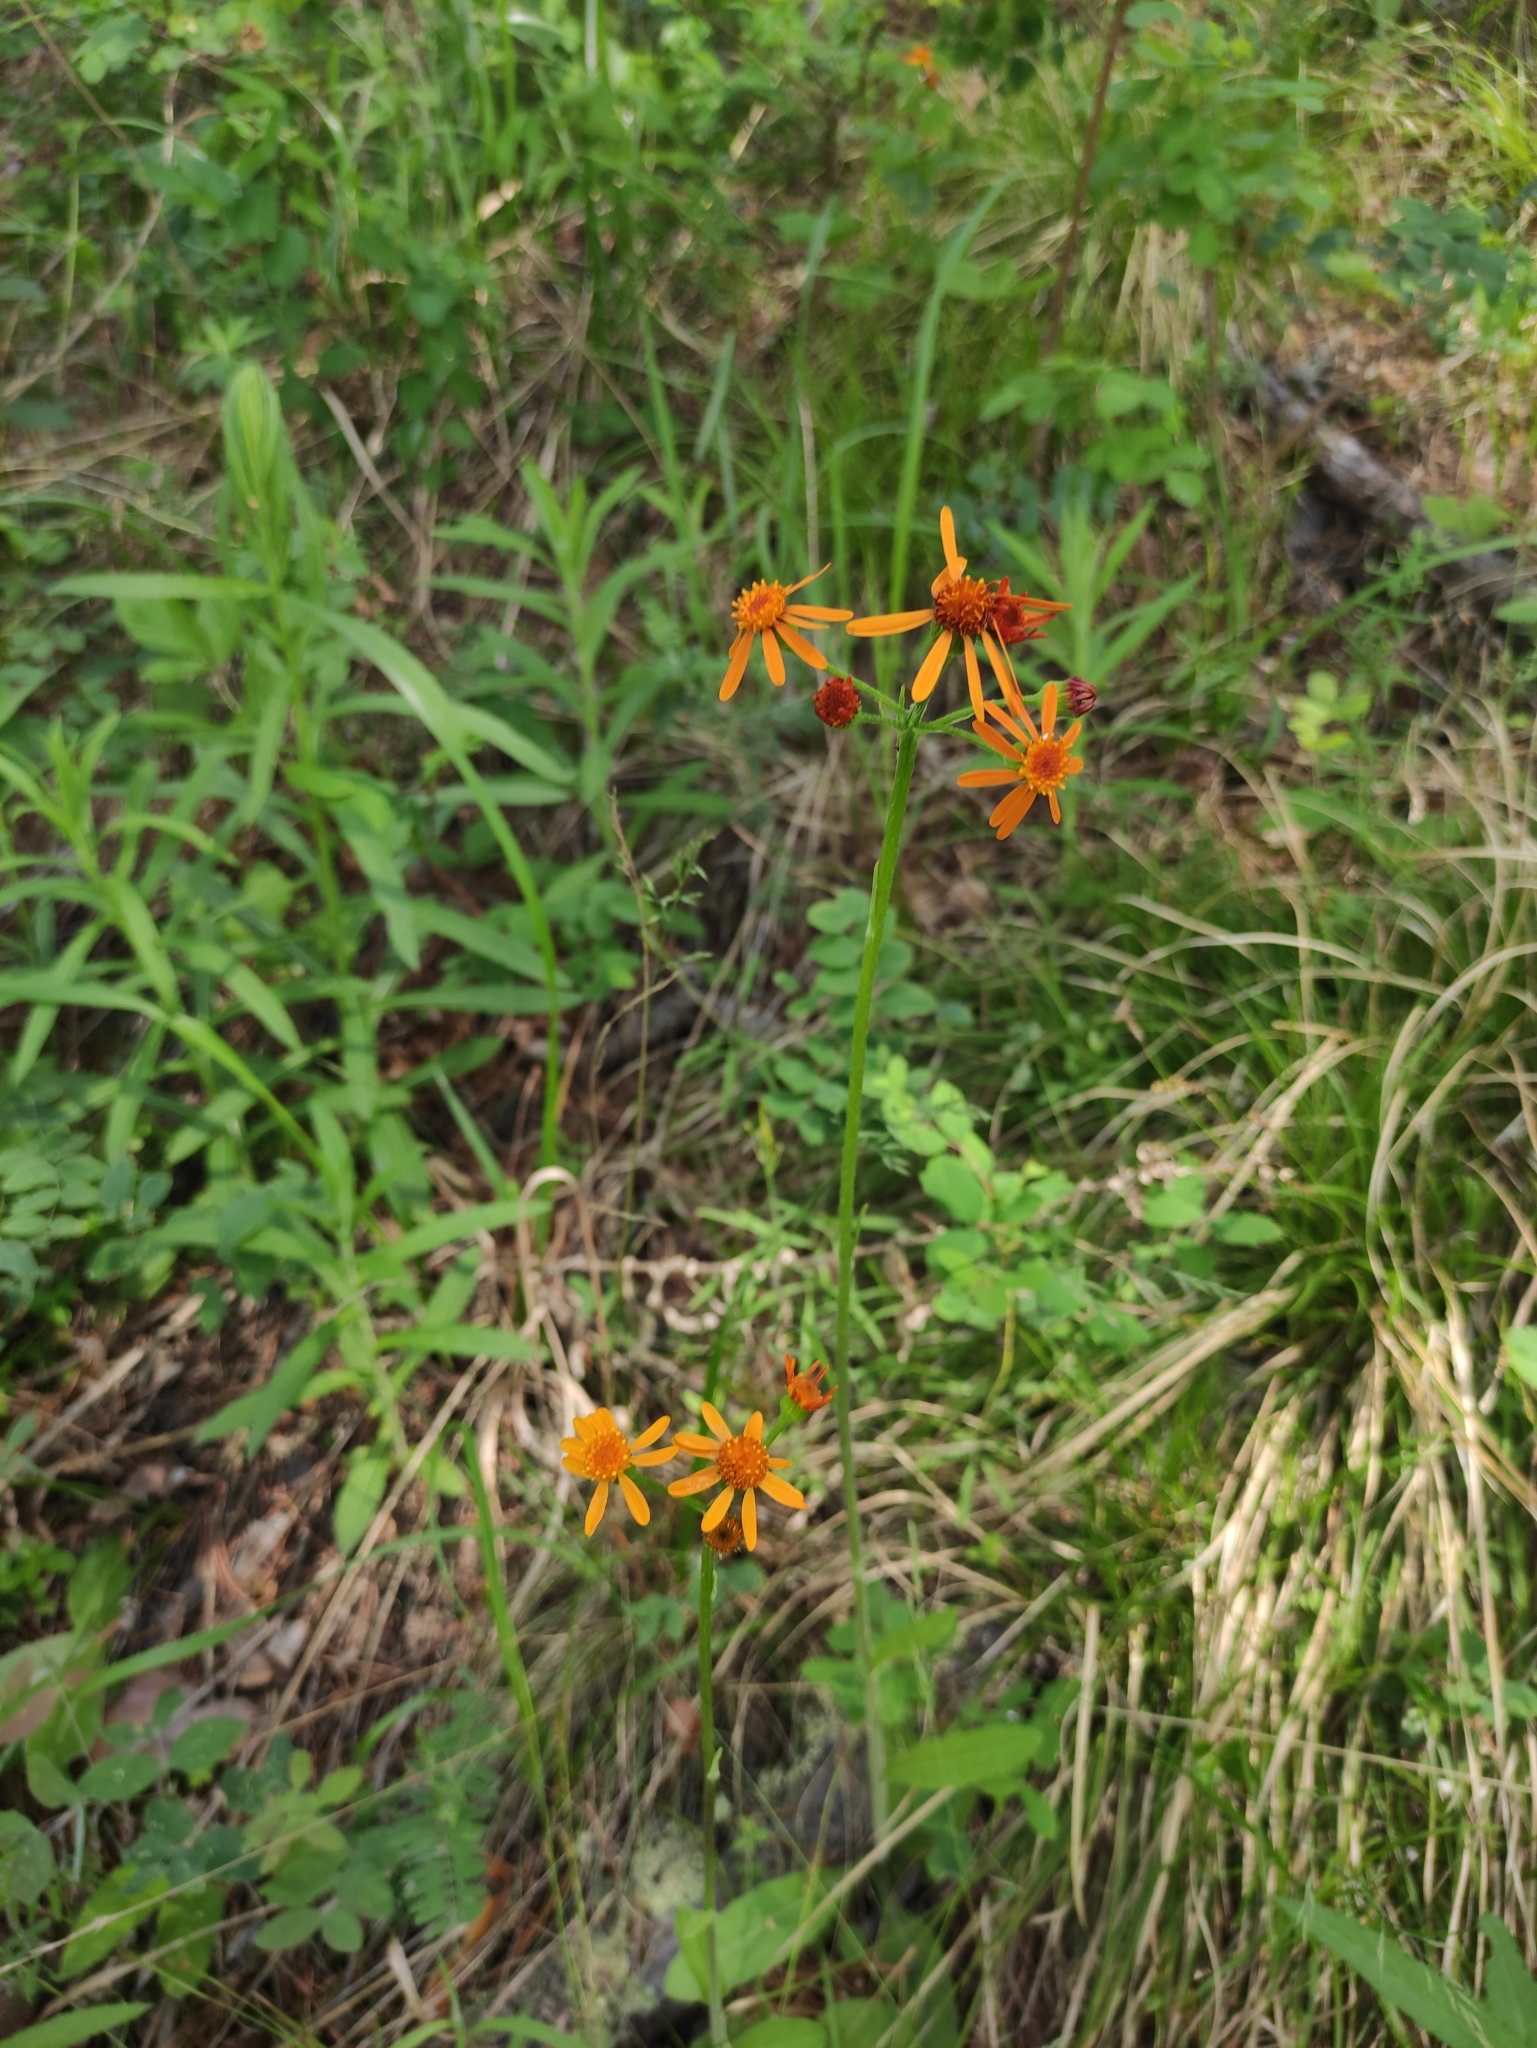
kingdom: Plantae
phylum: Tracheophyta
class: Magnoliopsida
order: Asterales
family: Asteraceae
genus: Tephroseris
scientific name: Tephroseris porphyrantha
